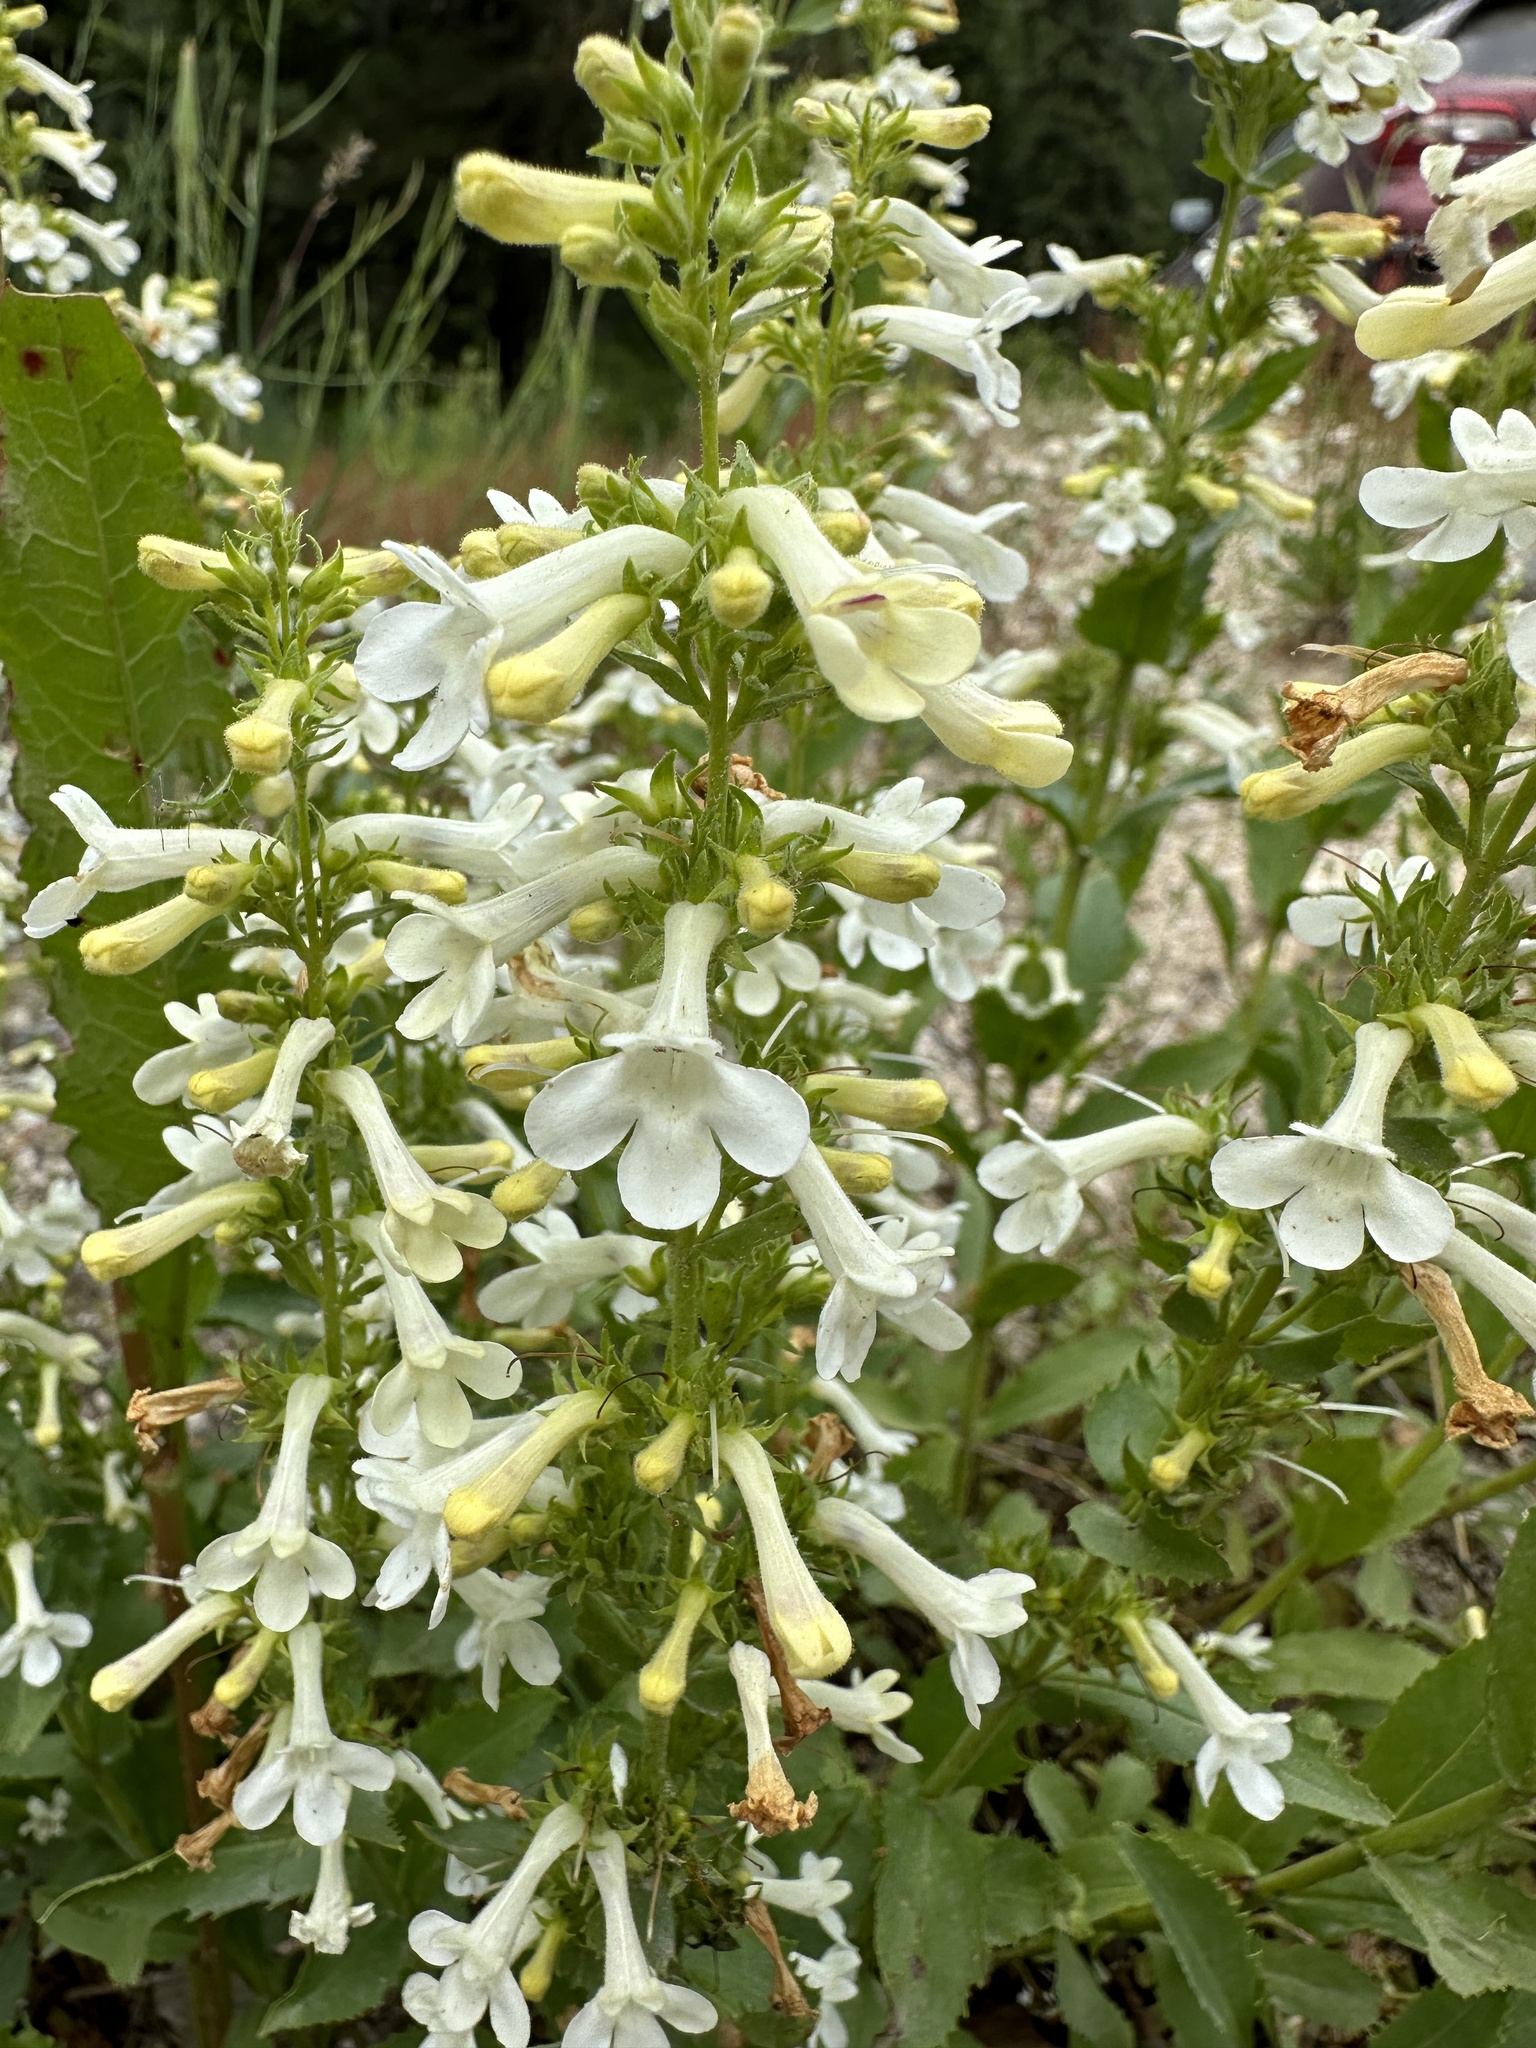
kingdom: Plantae
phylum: Tracheophyta
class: Magnoliopsida
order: Lamiales
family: Plantaginaceae
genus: Penstemon
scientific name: Penstemon deustus
